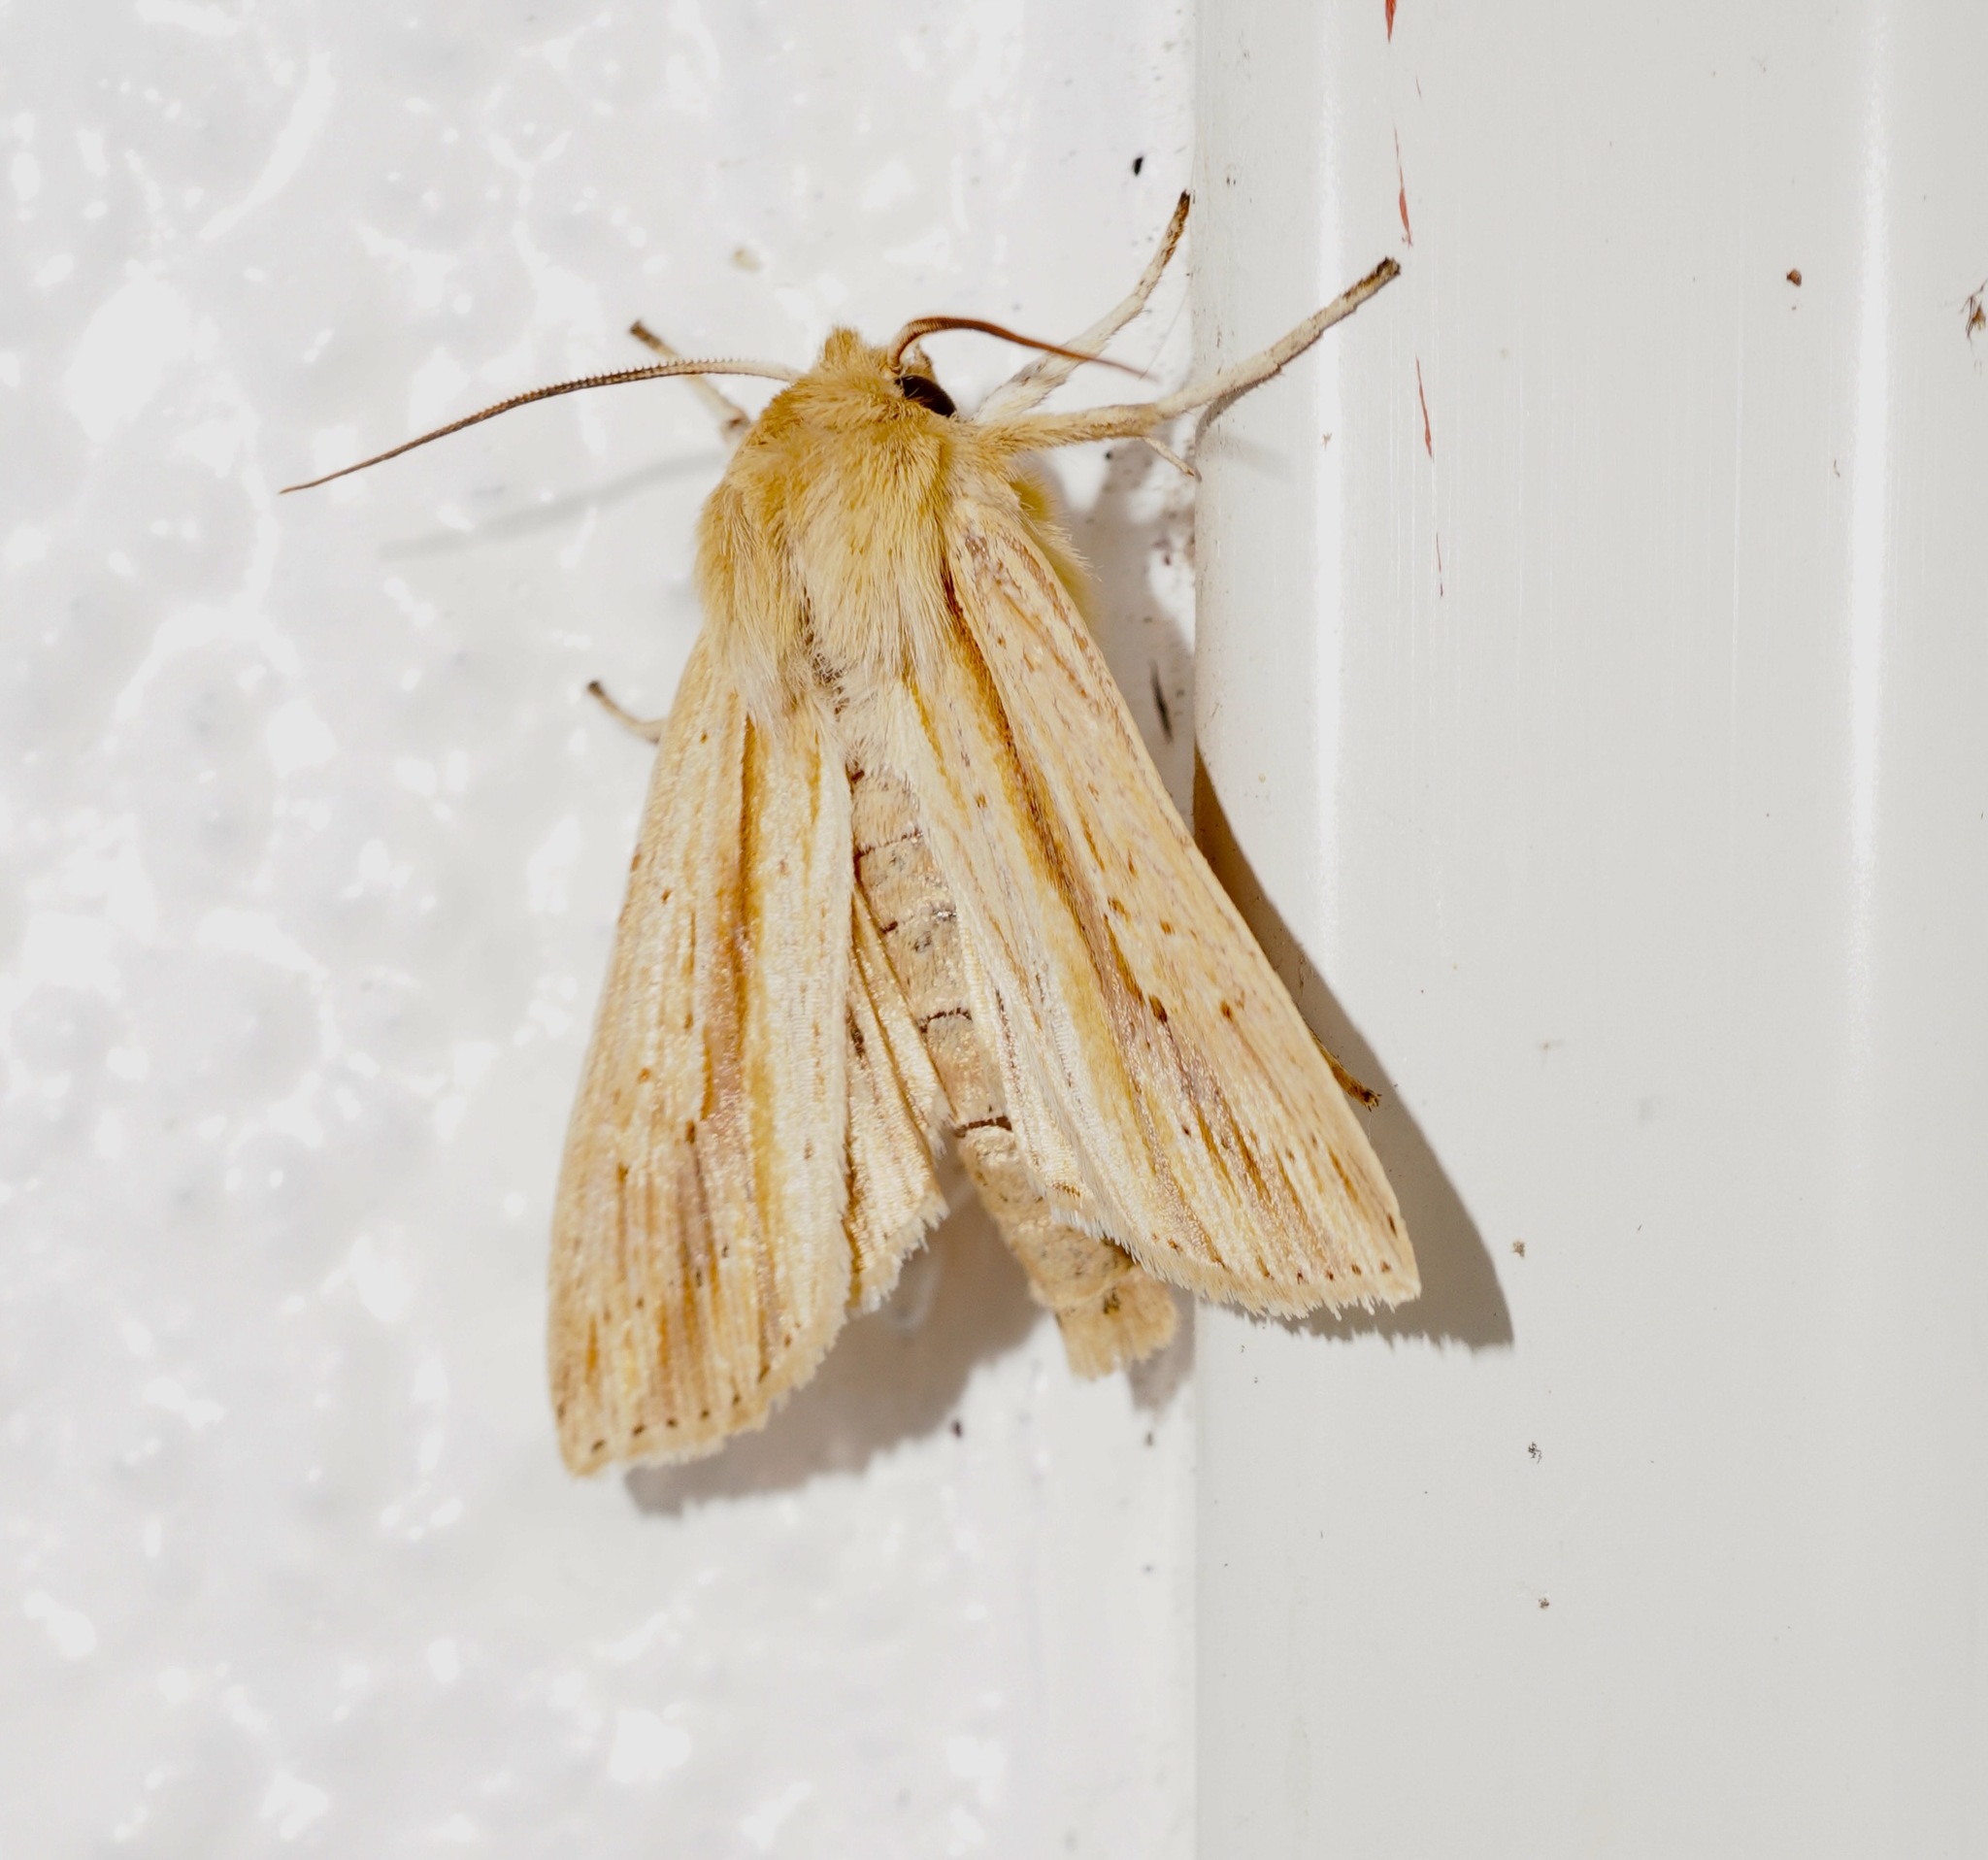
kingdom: Animalia
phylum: Arthropoda
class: Insecta
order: Lepidoptera
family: Noctuidae
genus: Ichneutica
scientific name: Ichneutica semivittata
